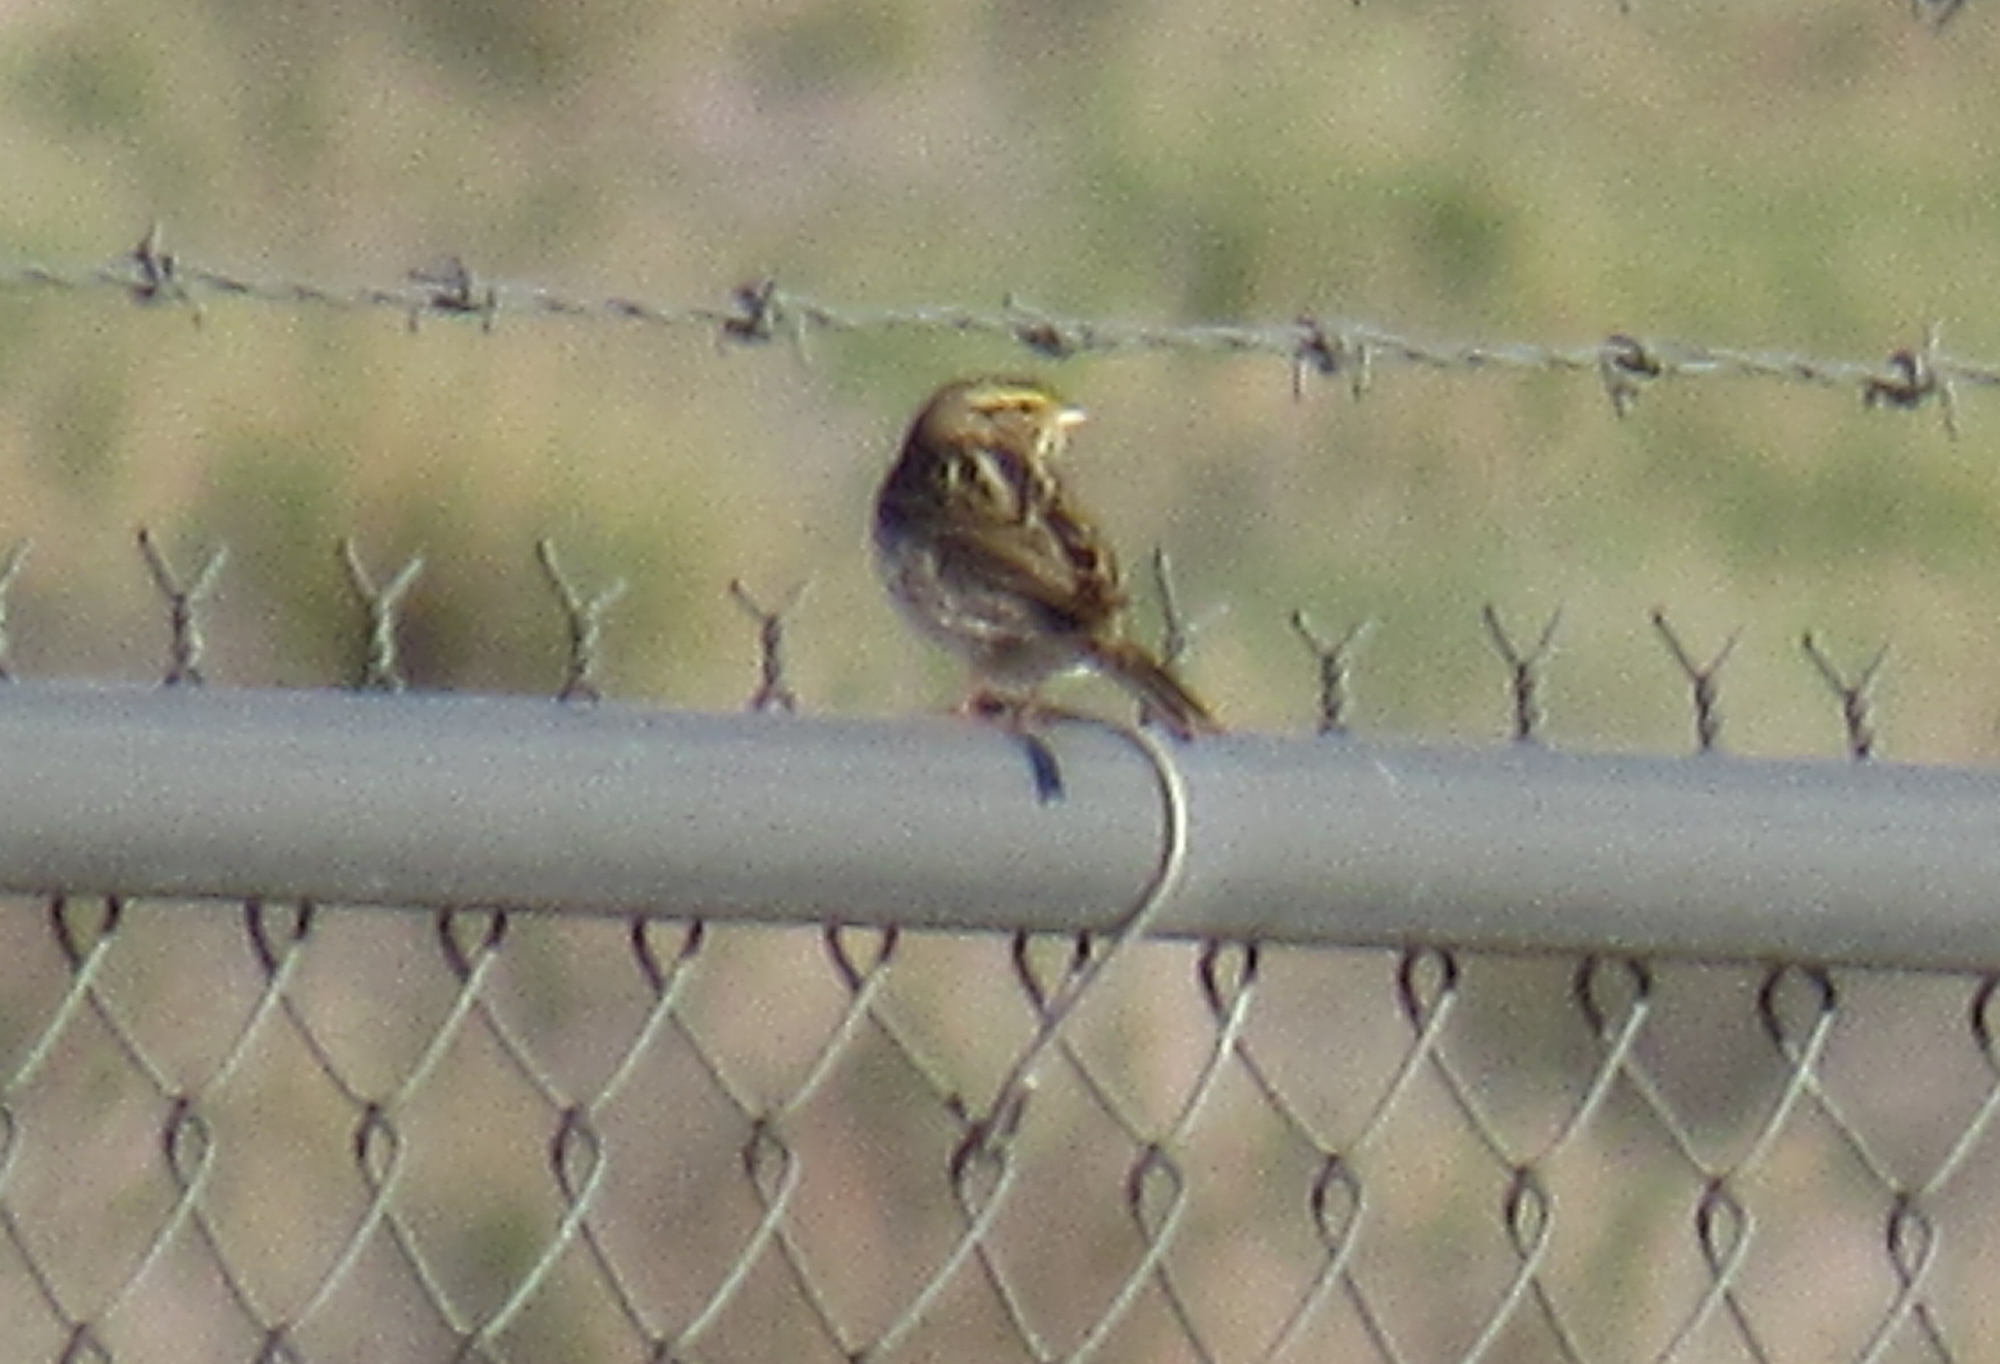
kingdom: Animalia
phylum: Chordata
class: Aves
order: Passeriformes
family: Passerellidae
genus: Passerculus
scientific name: Passerculus sandwichensis
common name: Savannah sparrow
